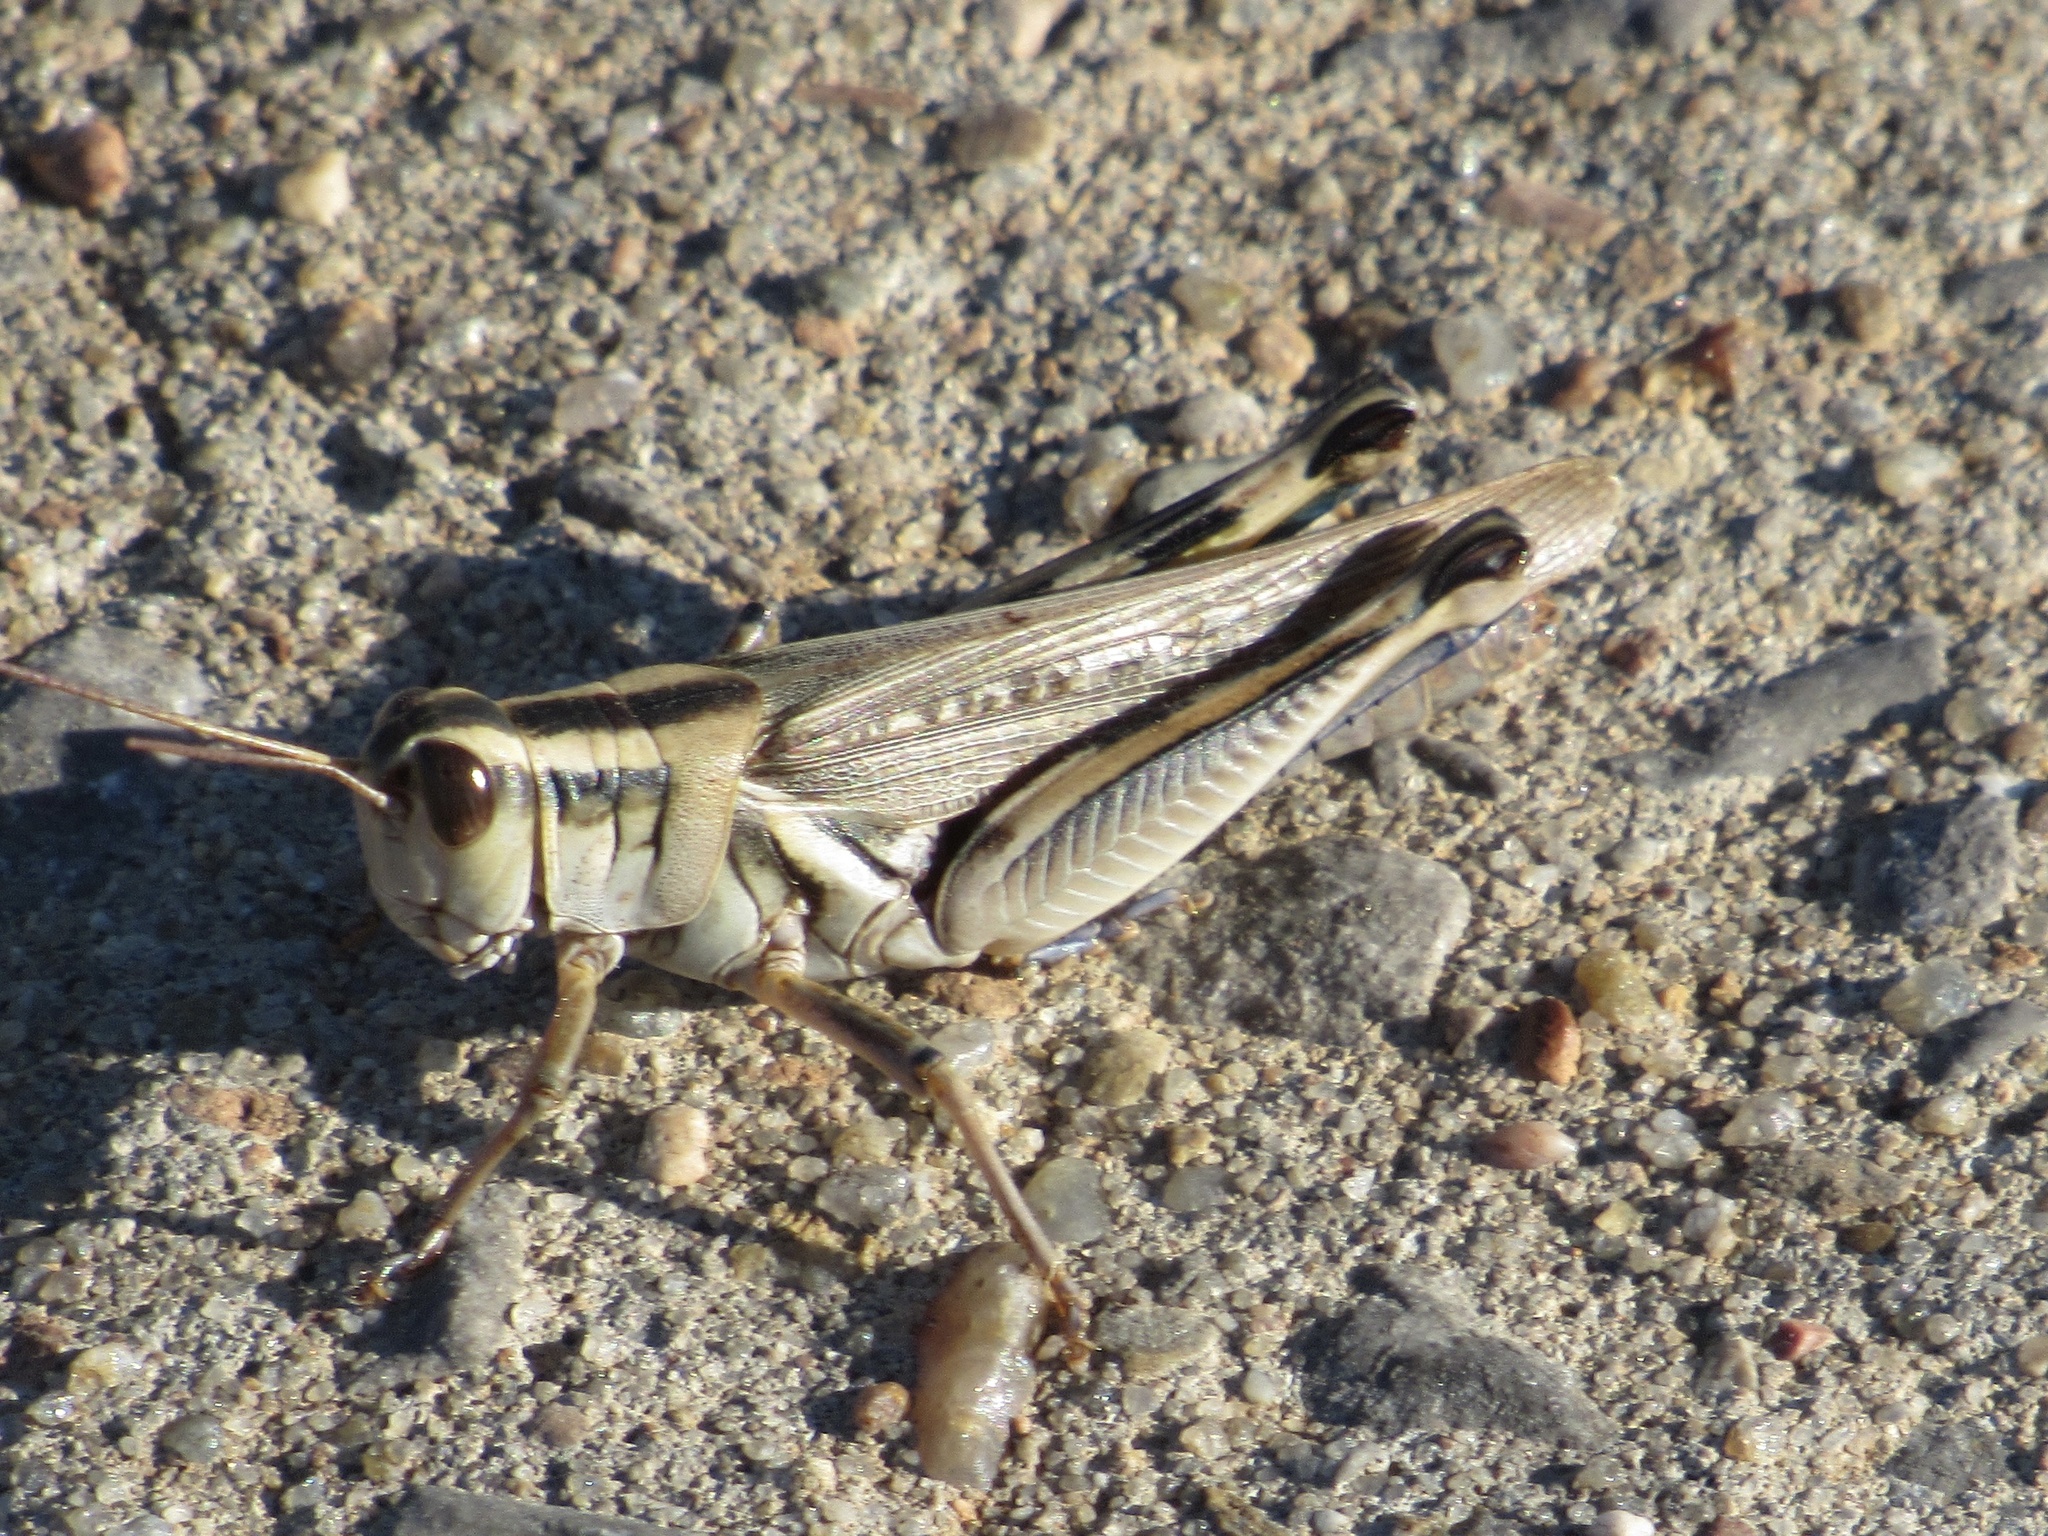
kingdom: Animalia
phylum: Arthropoda
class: Insecta
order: Orthoptera
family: Acrididae
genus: Melanoplus
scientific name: Melanoplus packardii
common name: Packard's grasshopper
